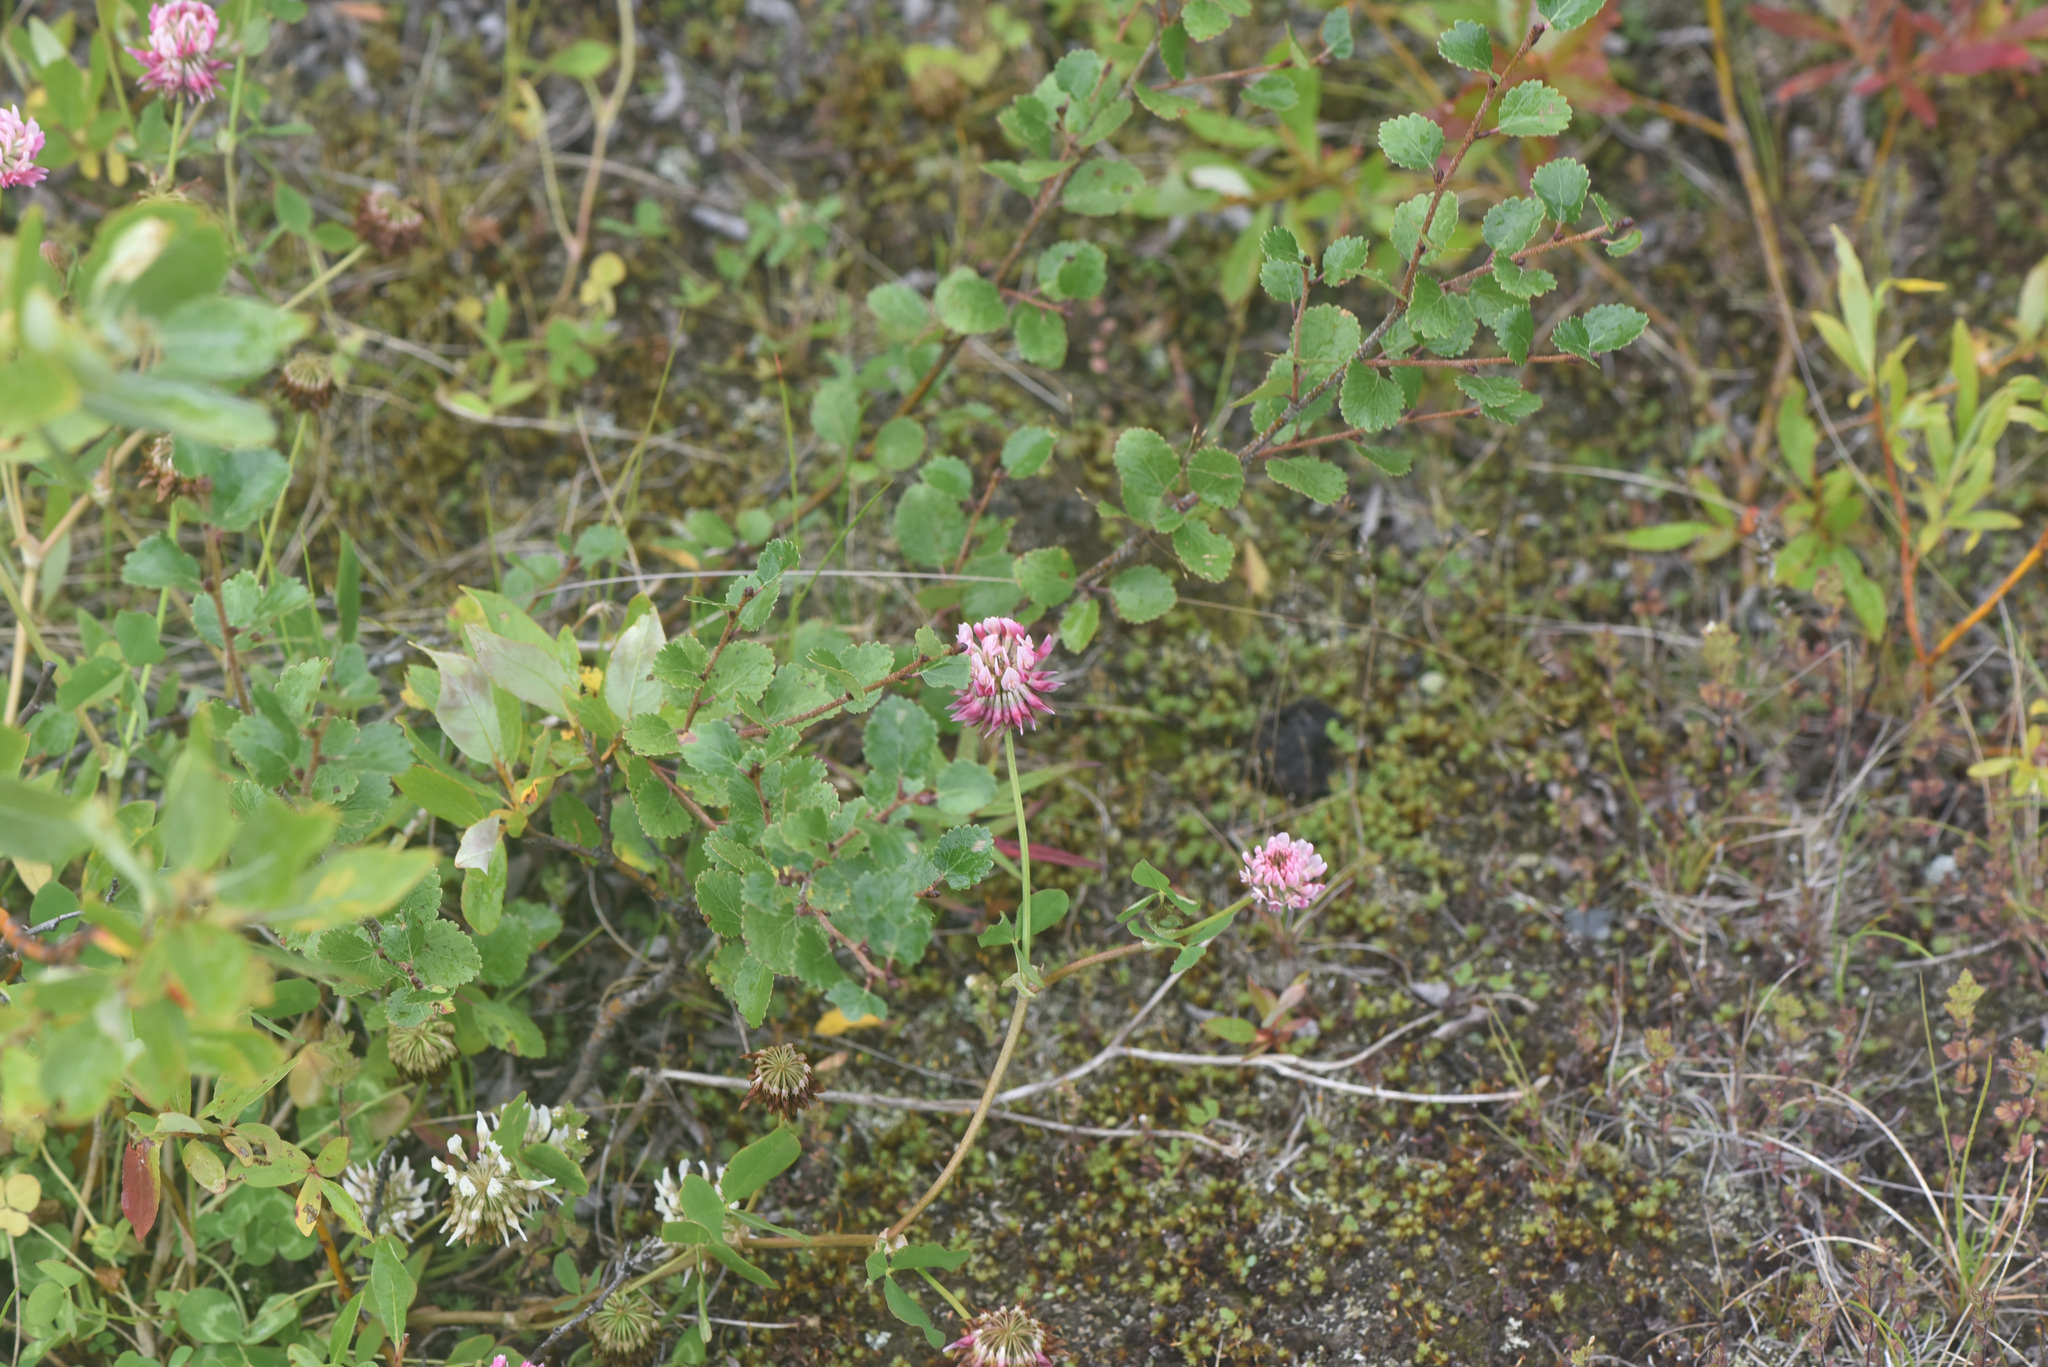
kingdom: Plantae
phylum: Tracheophyta
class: Magnoliopsida
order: Fabales
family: Fabaceae
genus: Trifolium
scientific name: Trifolium hybridum
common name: Alsike clover
